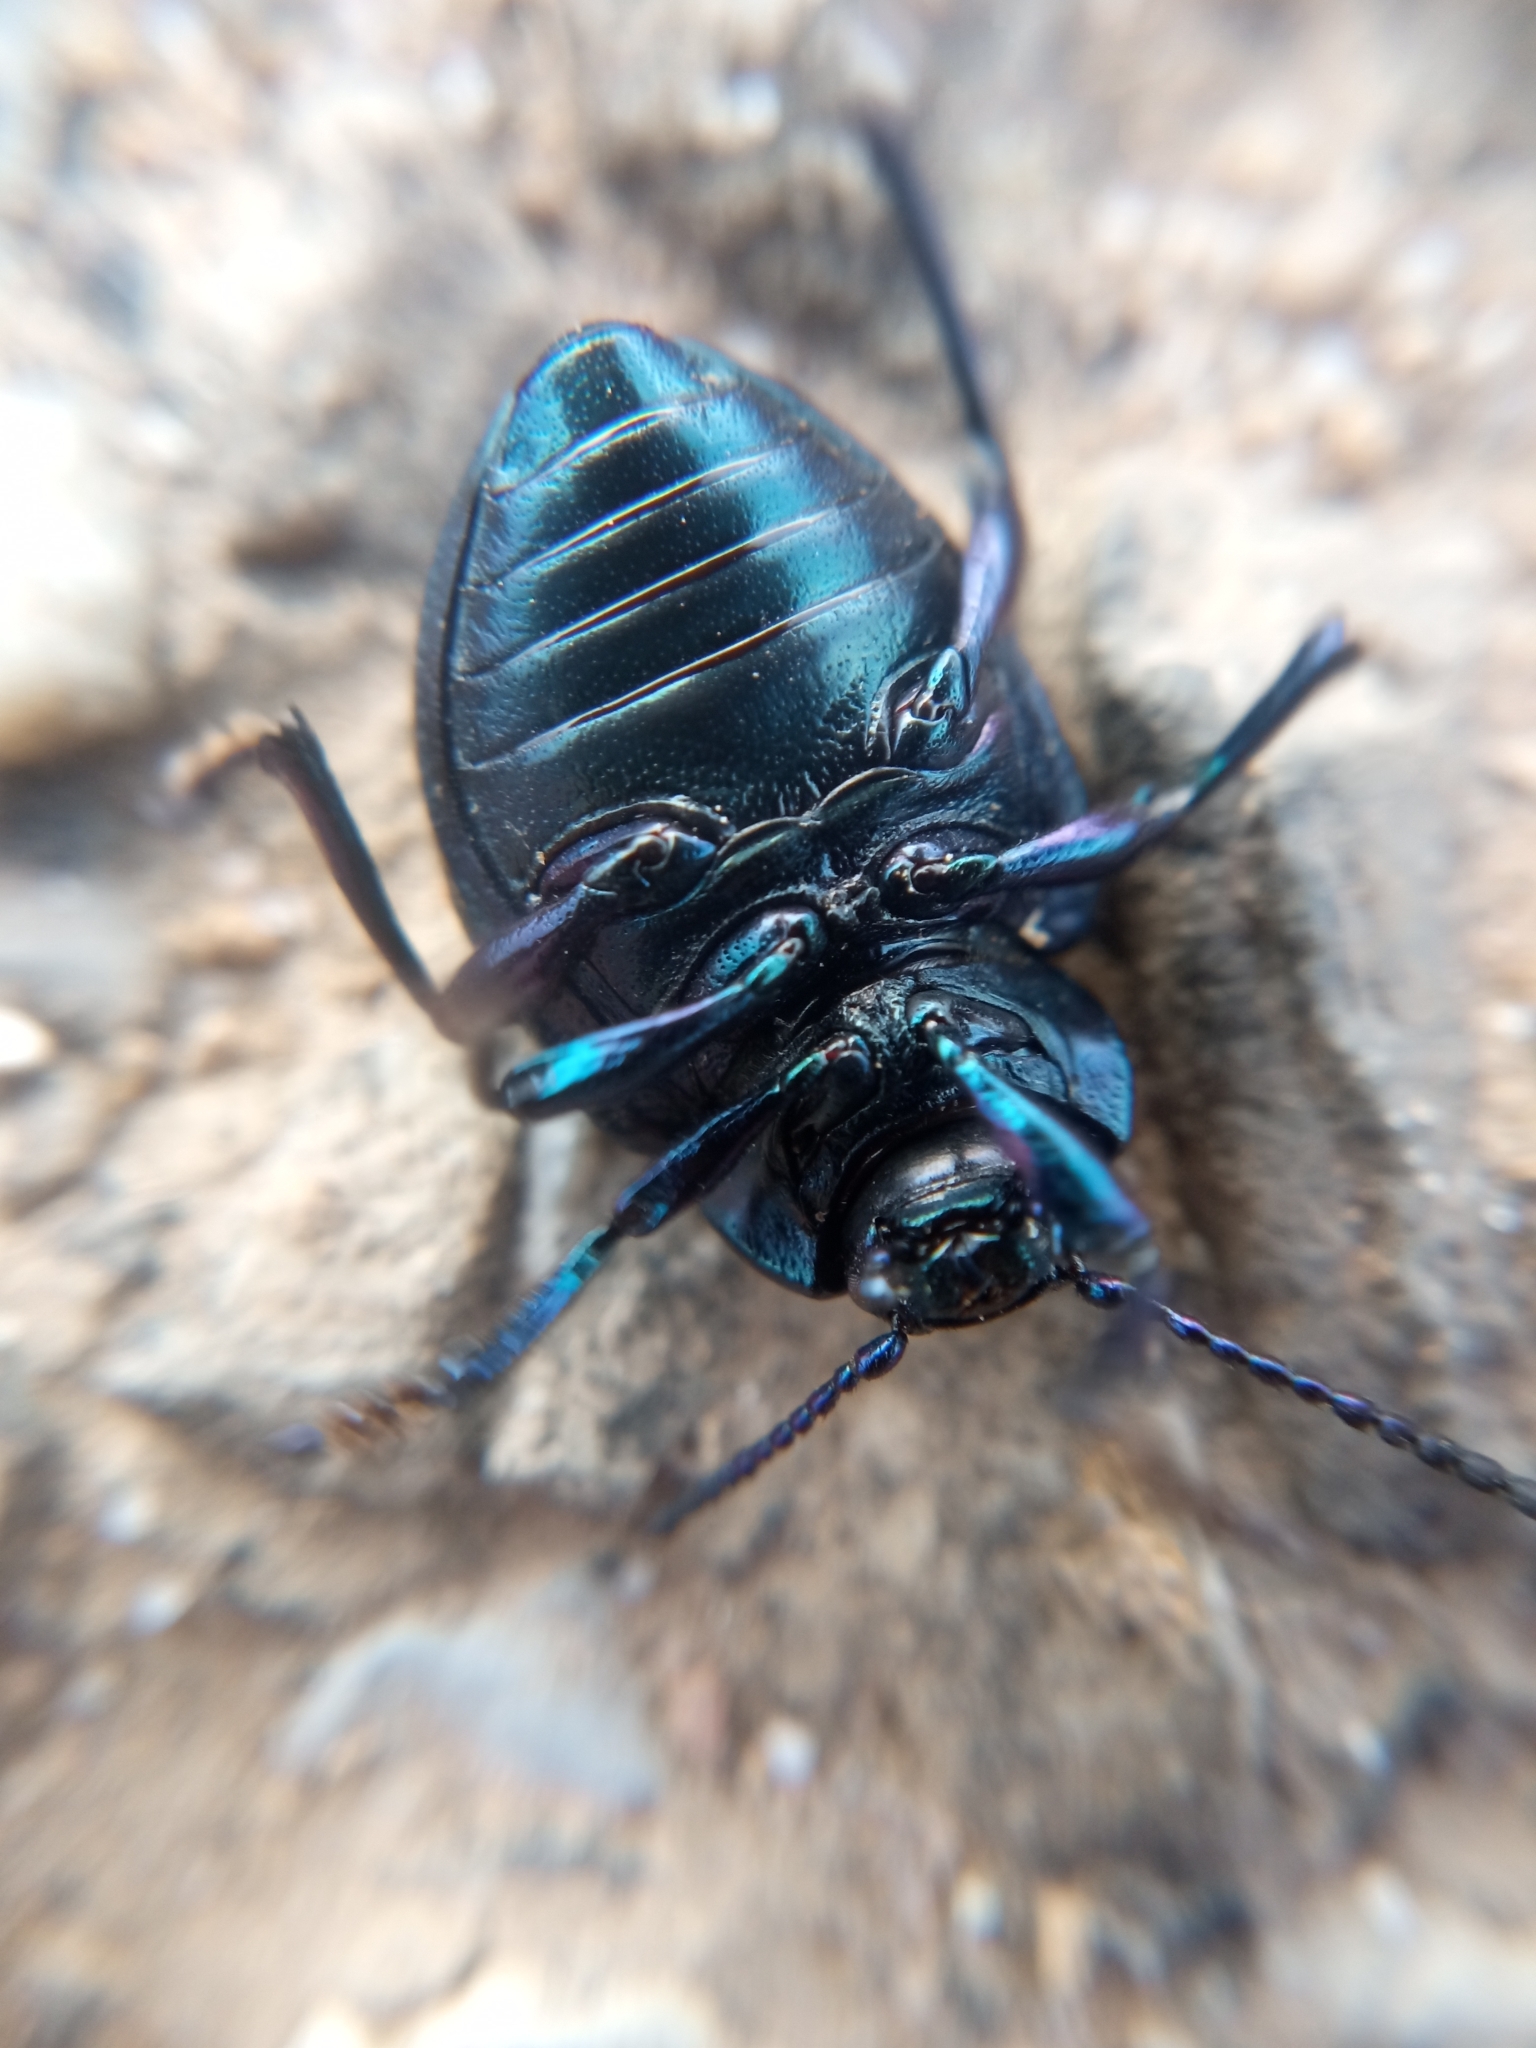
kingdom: Animalia
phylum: Arthropoda
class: Insecta
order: Coleoptera
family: Chrysomelidae
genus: Timarcha
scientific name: Timarcha goettingensis
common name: Small bloody-nosed beetle
